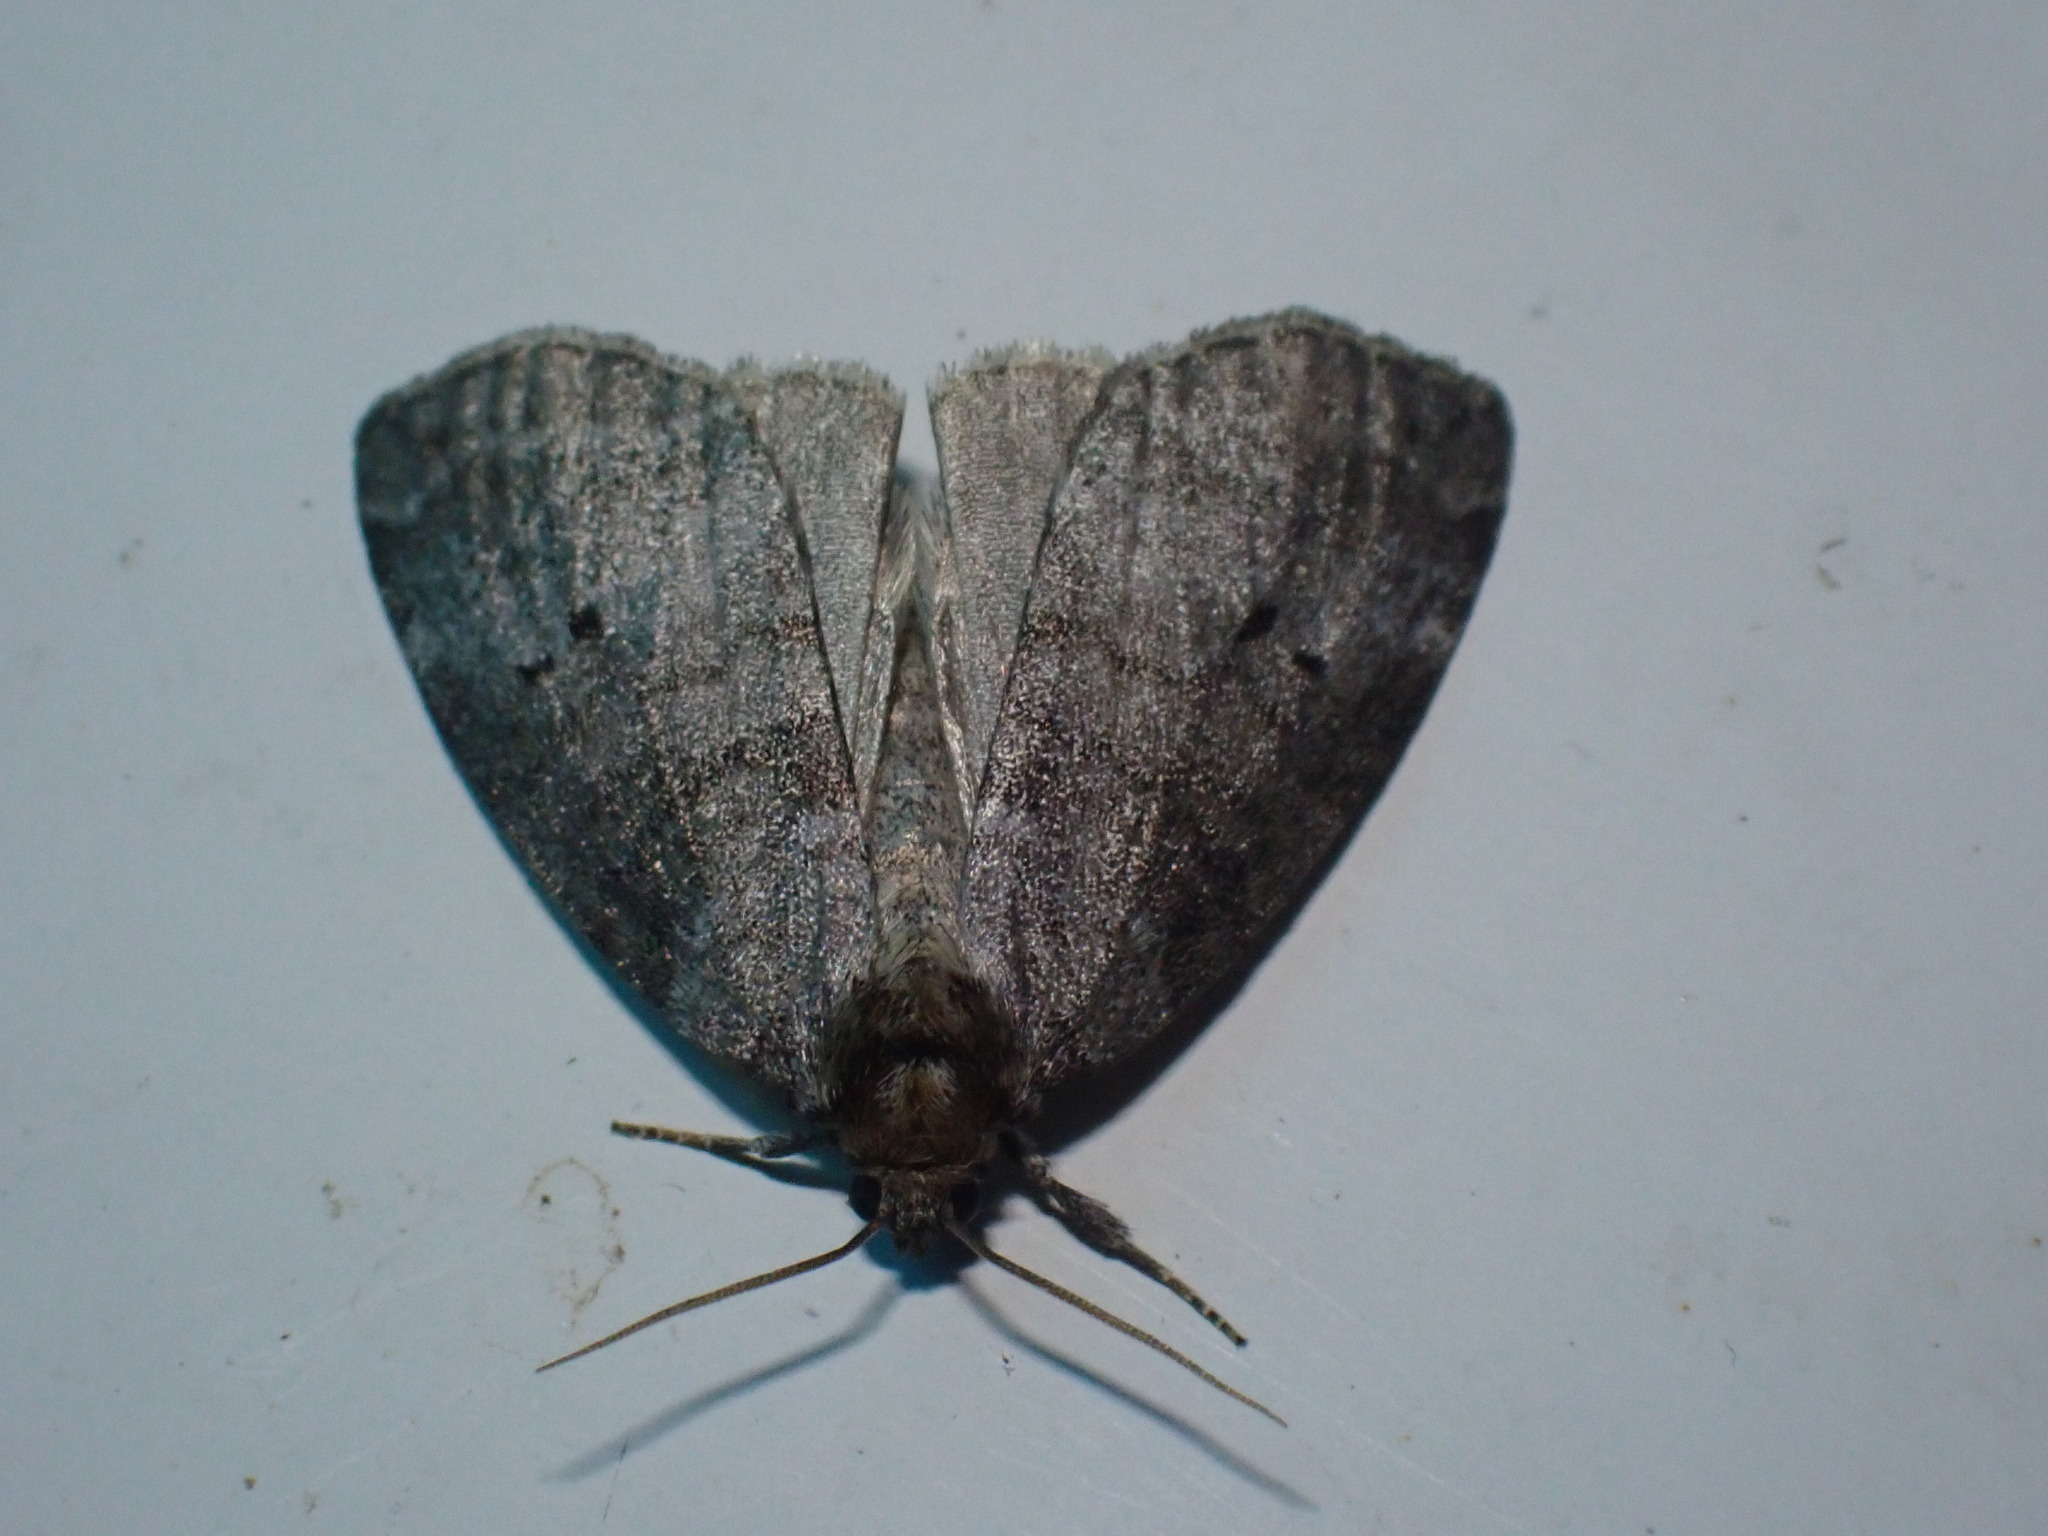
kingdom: Animalia
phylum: Arthropoda
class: Insecta
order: Lepidoptera
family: Drepanidae
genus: Ochropacha
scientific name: Ochropacha duplaris
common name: Common lutestring
